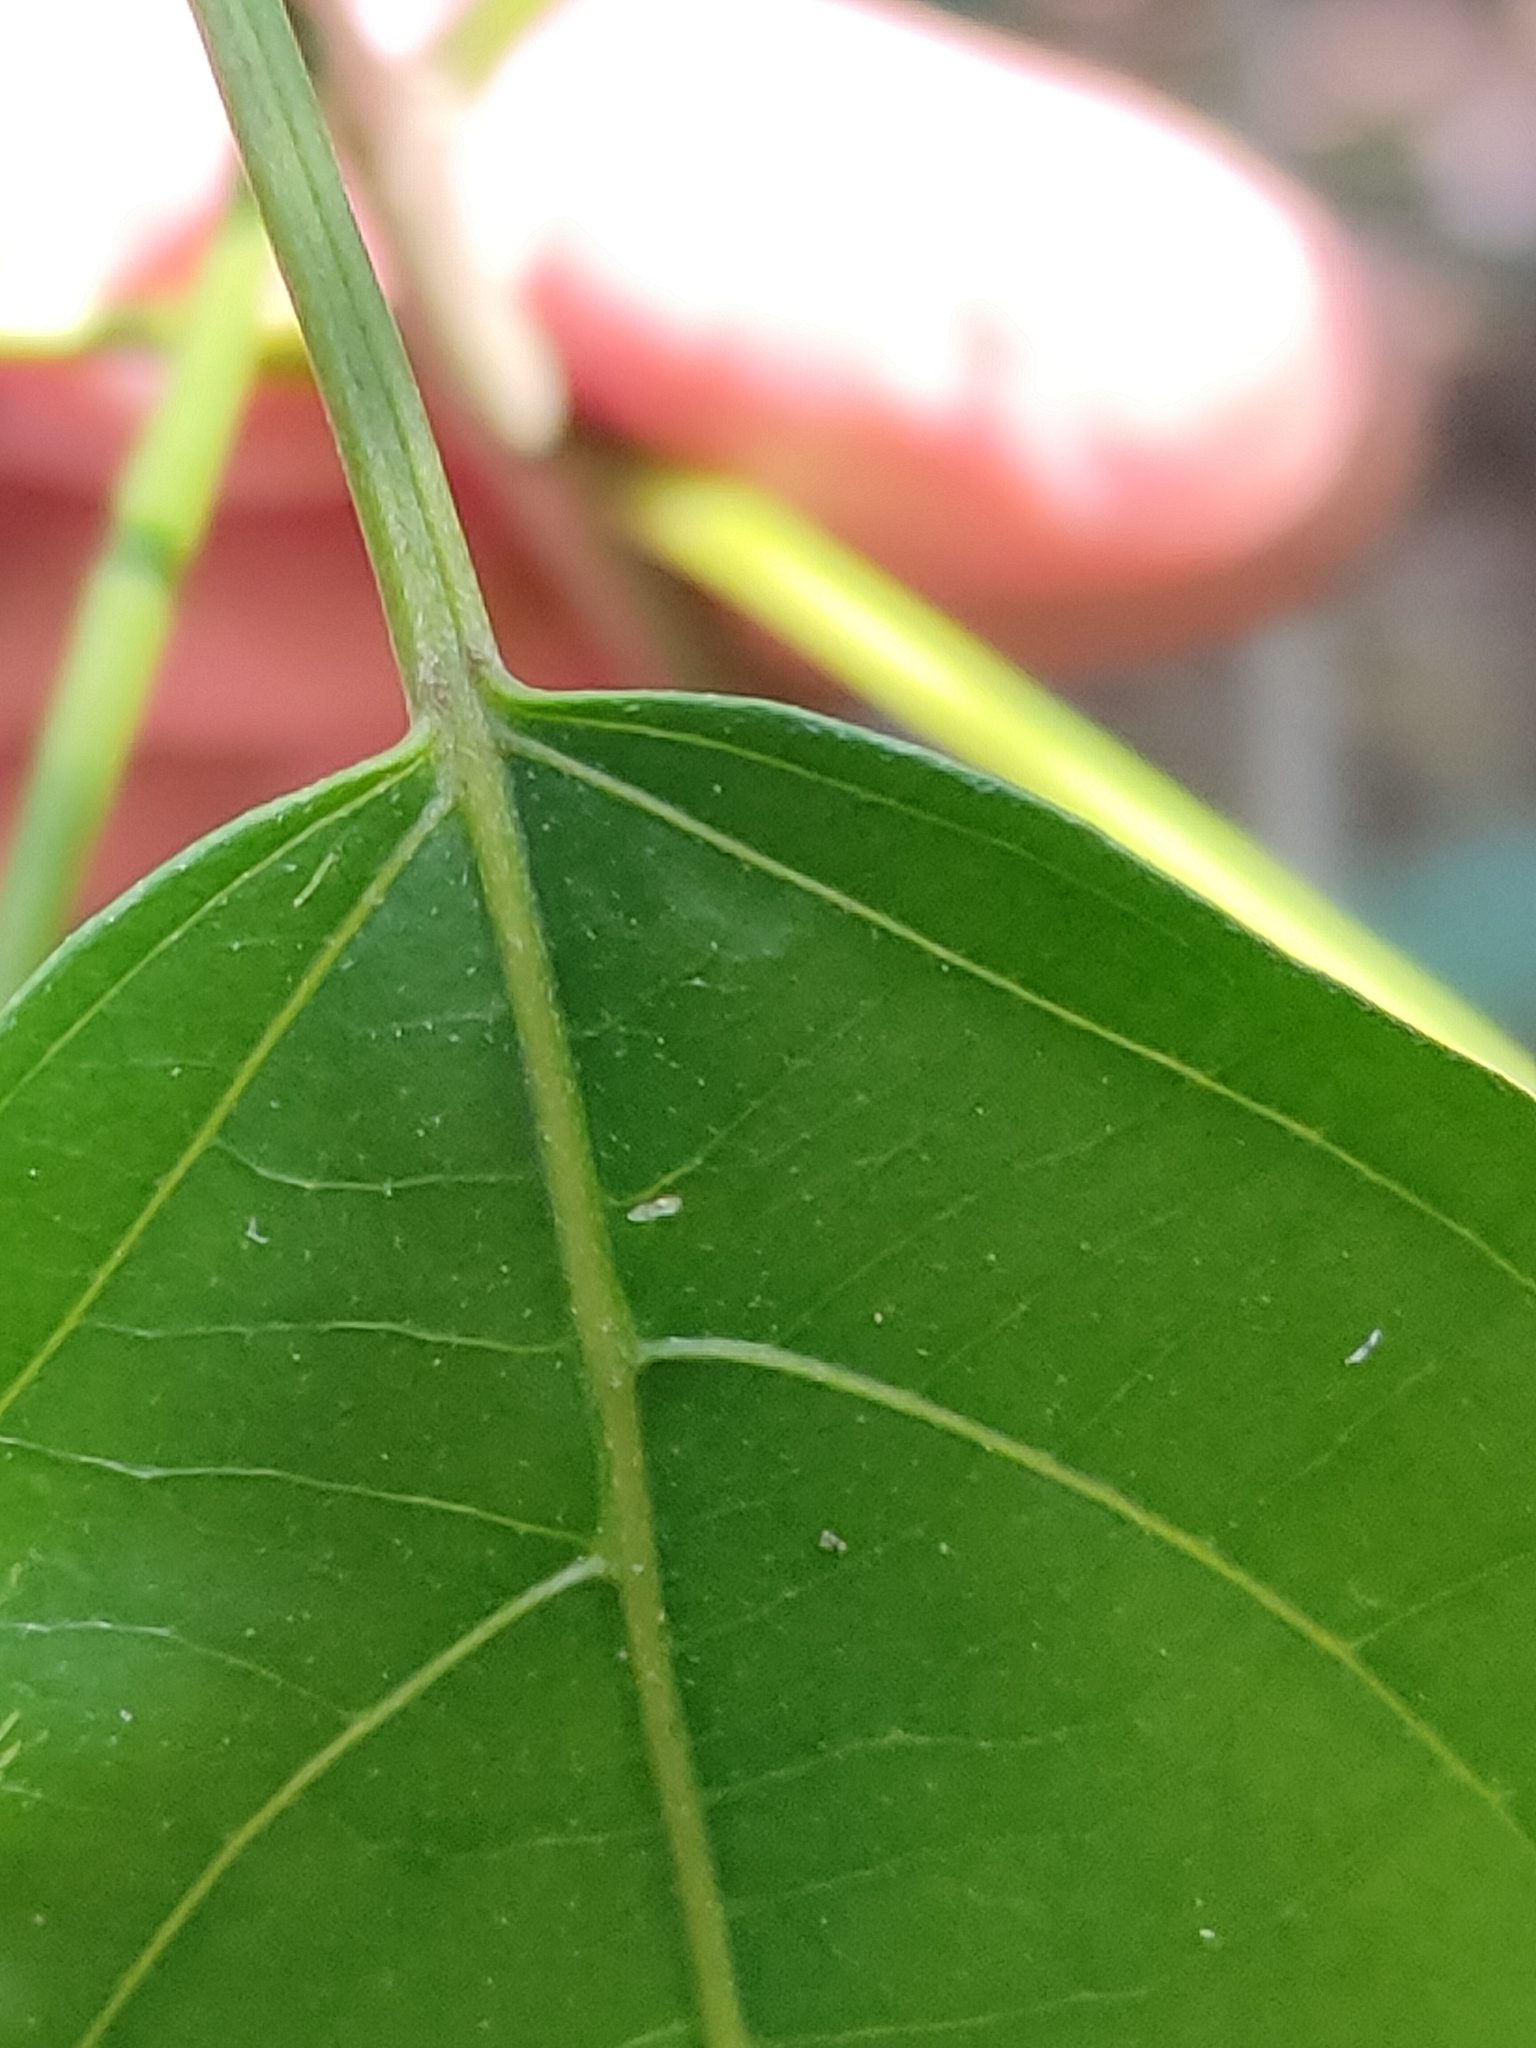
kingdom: Plantae
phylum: Tracheophyta
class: Magnoliopsida
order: Malpighiales
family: Euphorbiaceae
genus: Claoxylon
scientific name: Claoxylon tenerifolium
